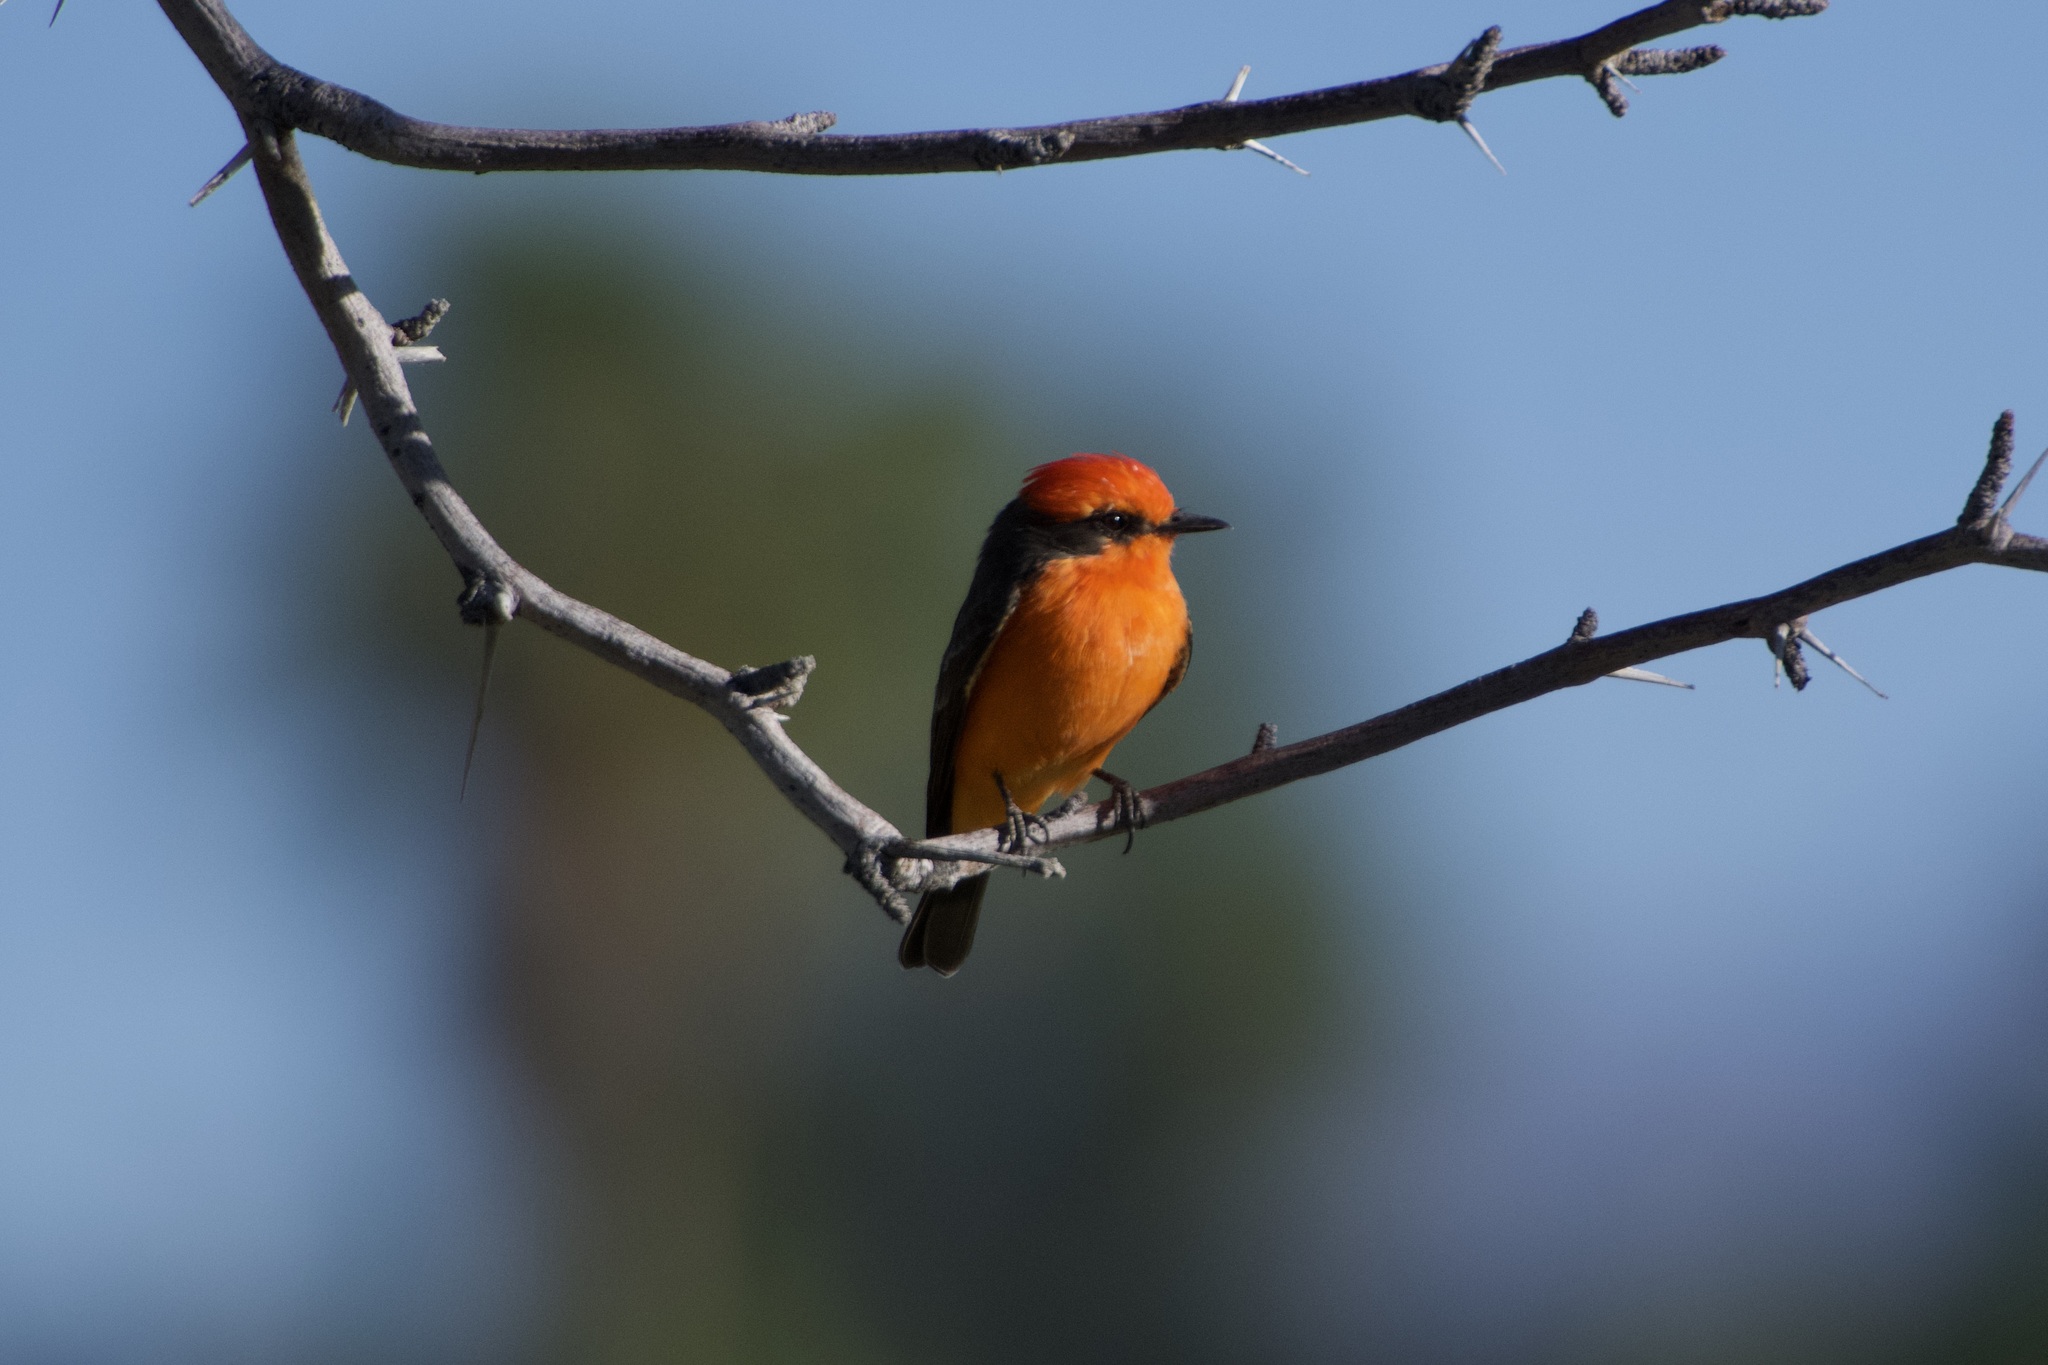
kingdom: Animalia
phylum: Chordata
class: Aves
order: Passeriformes
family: Tyrannidae
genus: Pyrocephalus
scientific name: Pyrocephalus rubinus
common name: Vermilion flycatcher
